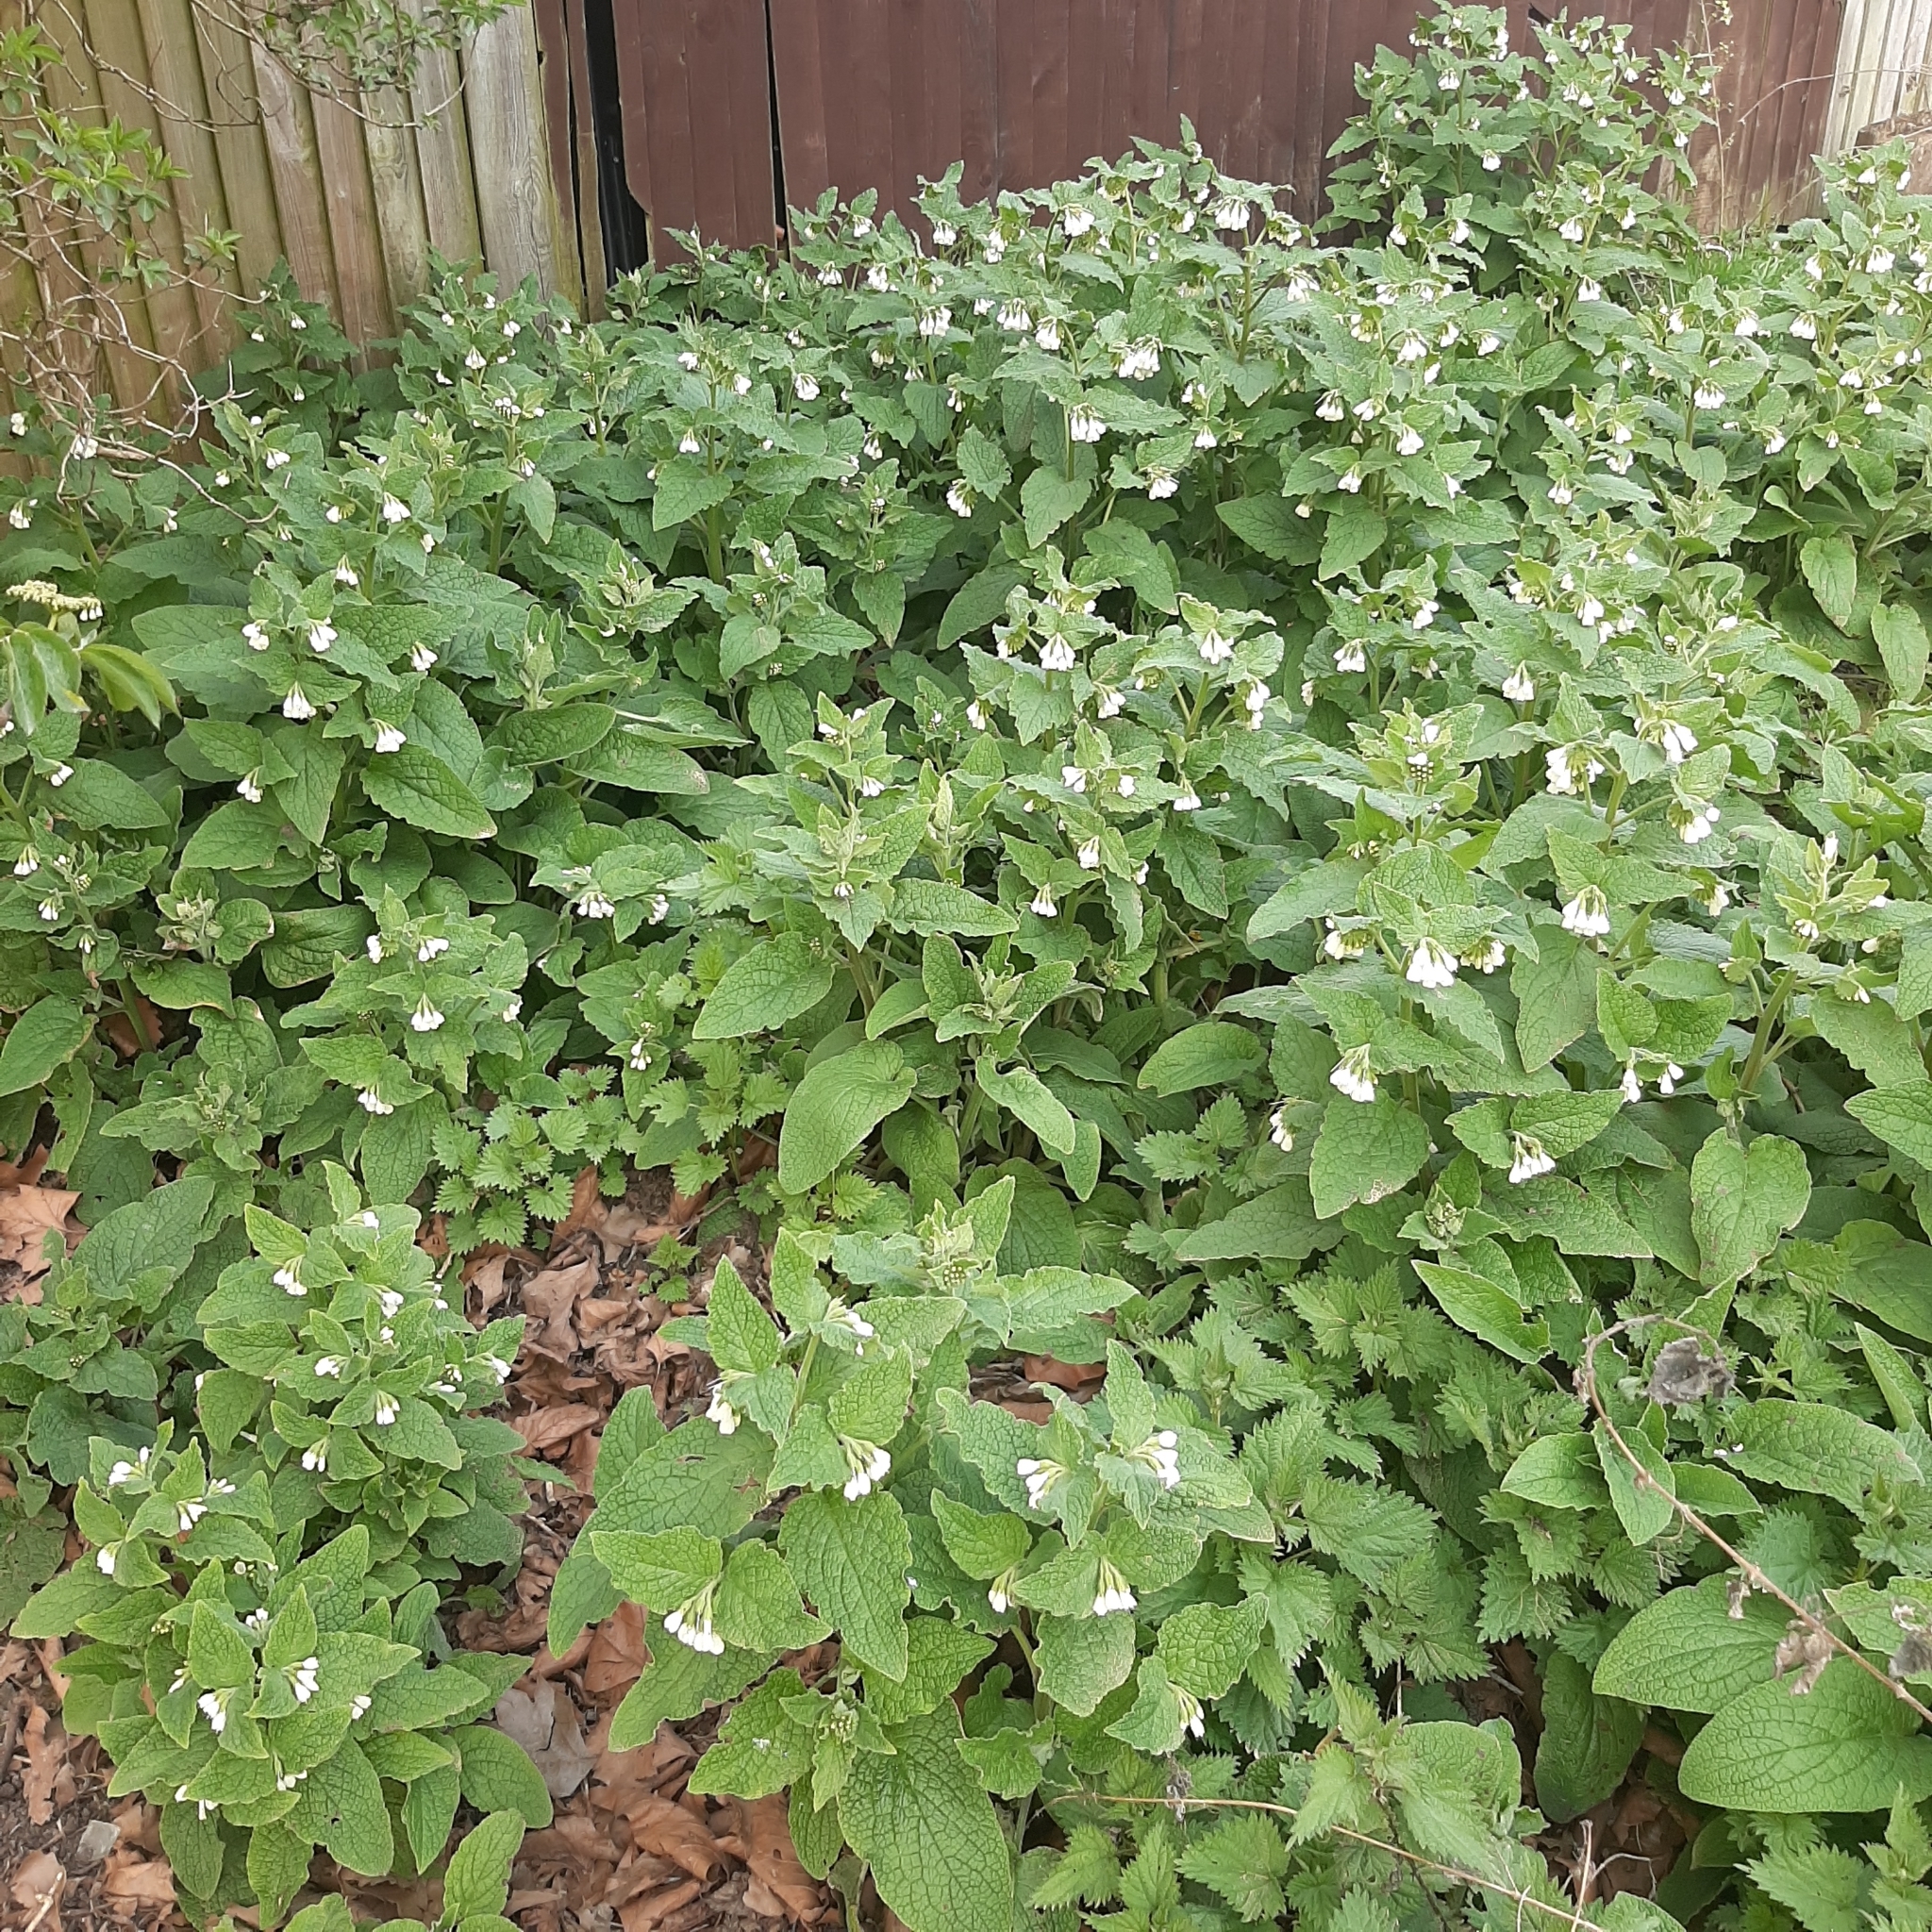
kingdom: Plantae
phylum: Tracheophyta
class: Magnoliopsida
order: Boraginales
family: Boraginaceae
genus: Symphytum
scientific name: Symphytum orientale
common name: White comfrey
